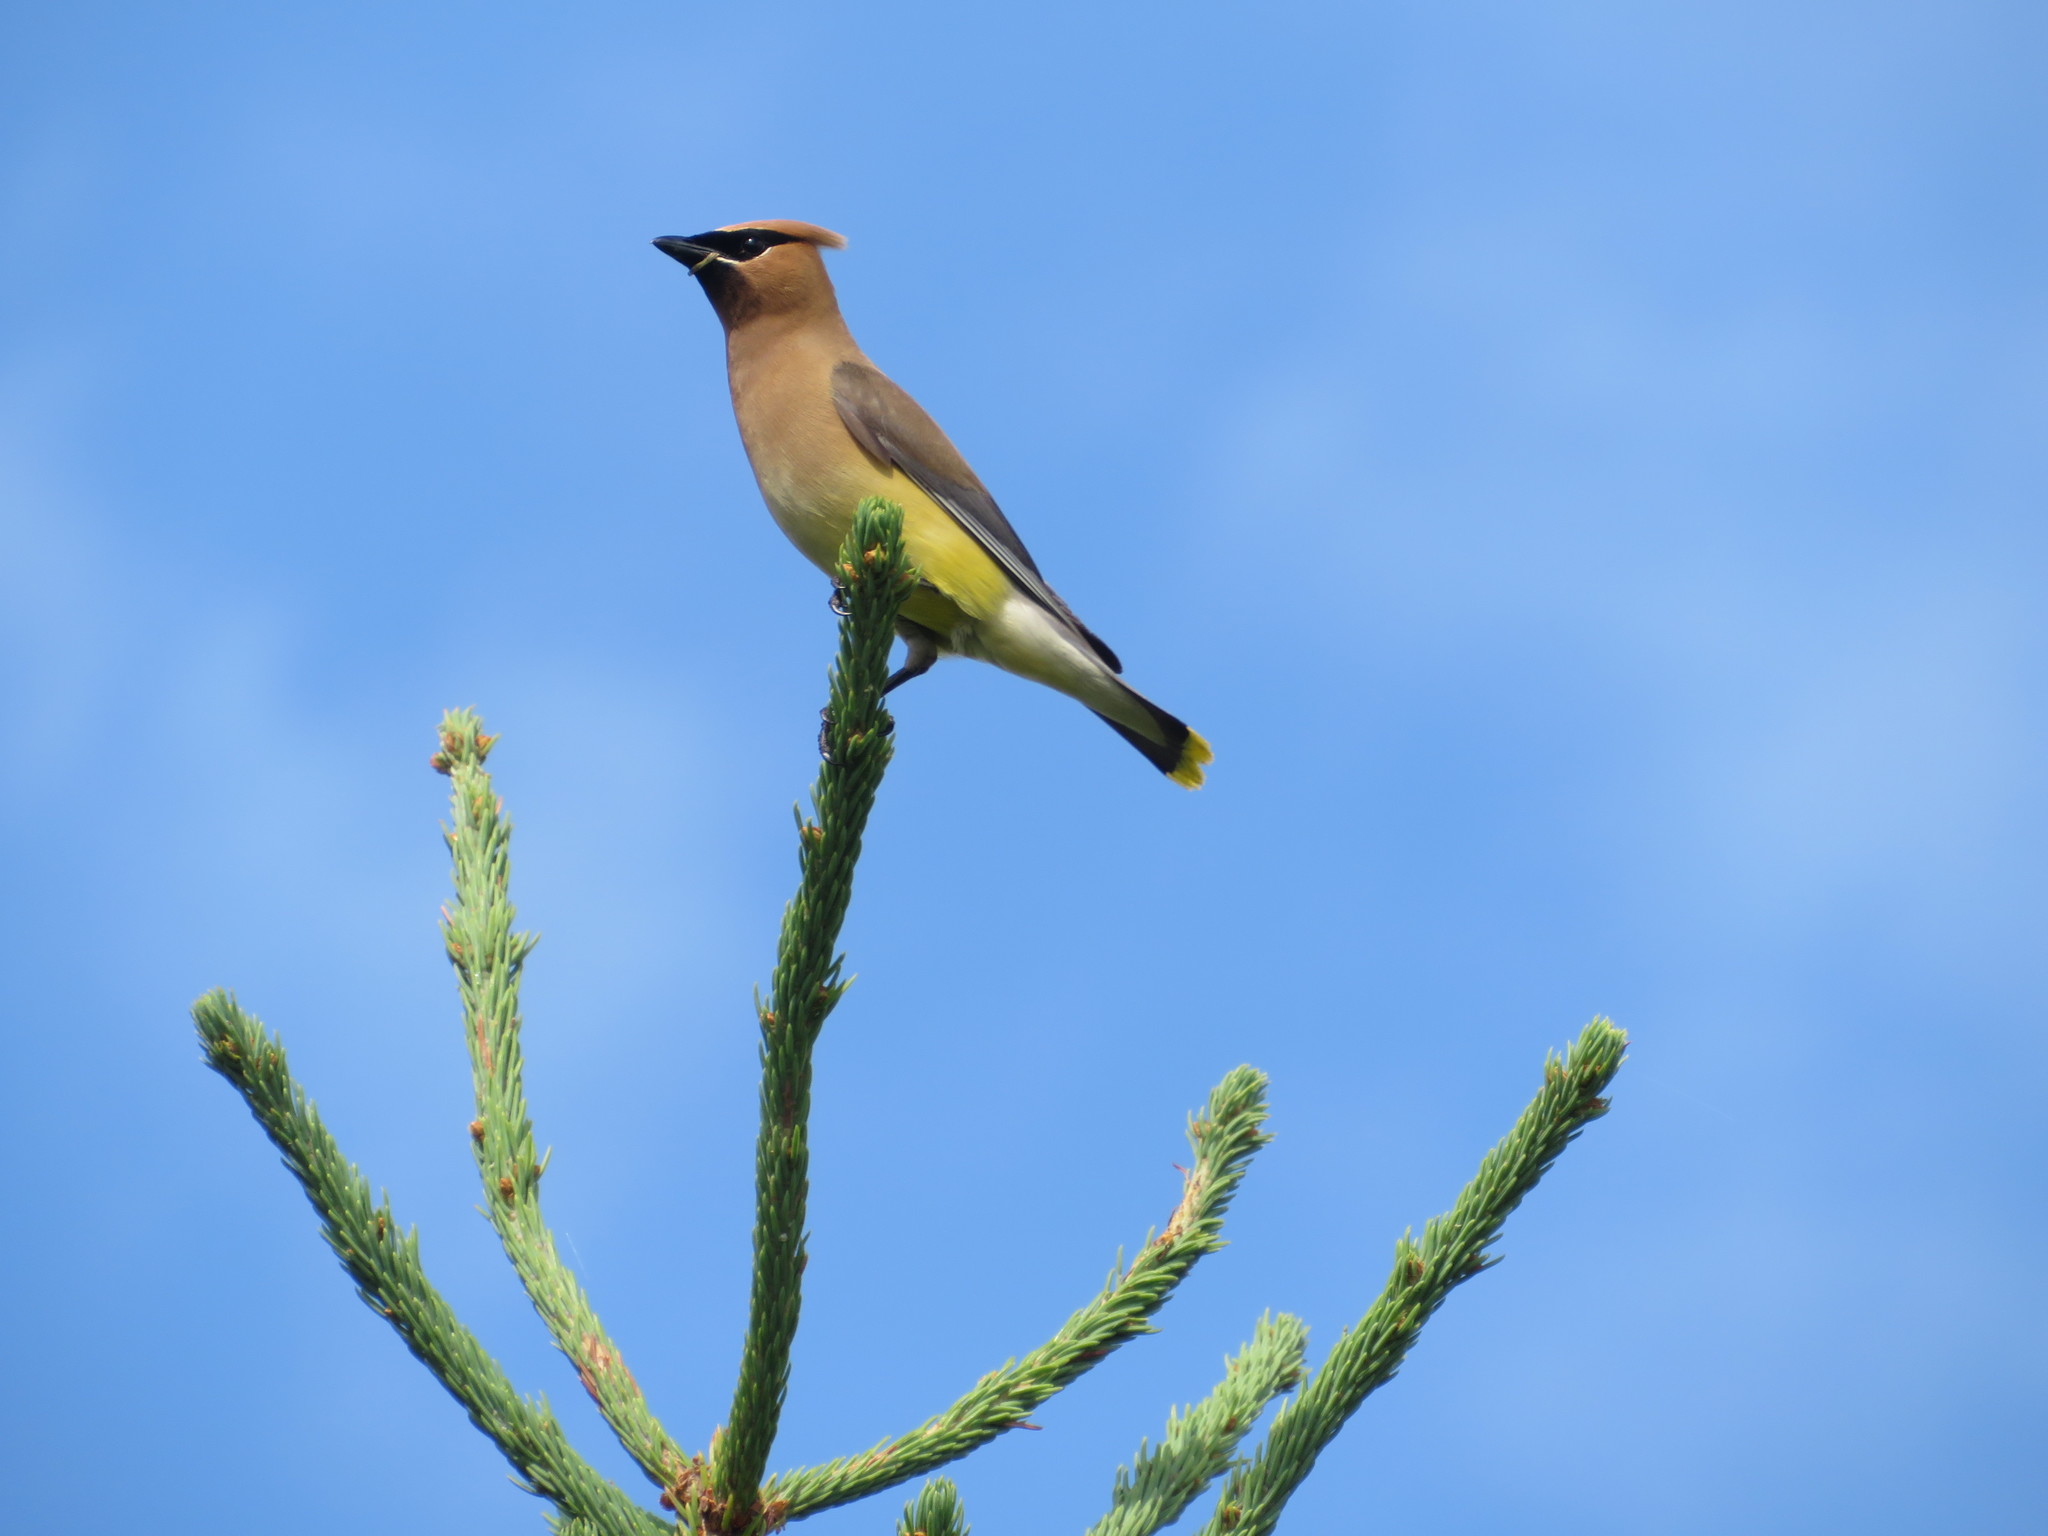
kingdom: Animalia
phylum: Chordata
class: Aves
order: Passeriformes
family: Bombycillidae
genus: Bombycilla
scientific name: Bombycilla cedrorum
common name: Cedar waxwing
